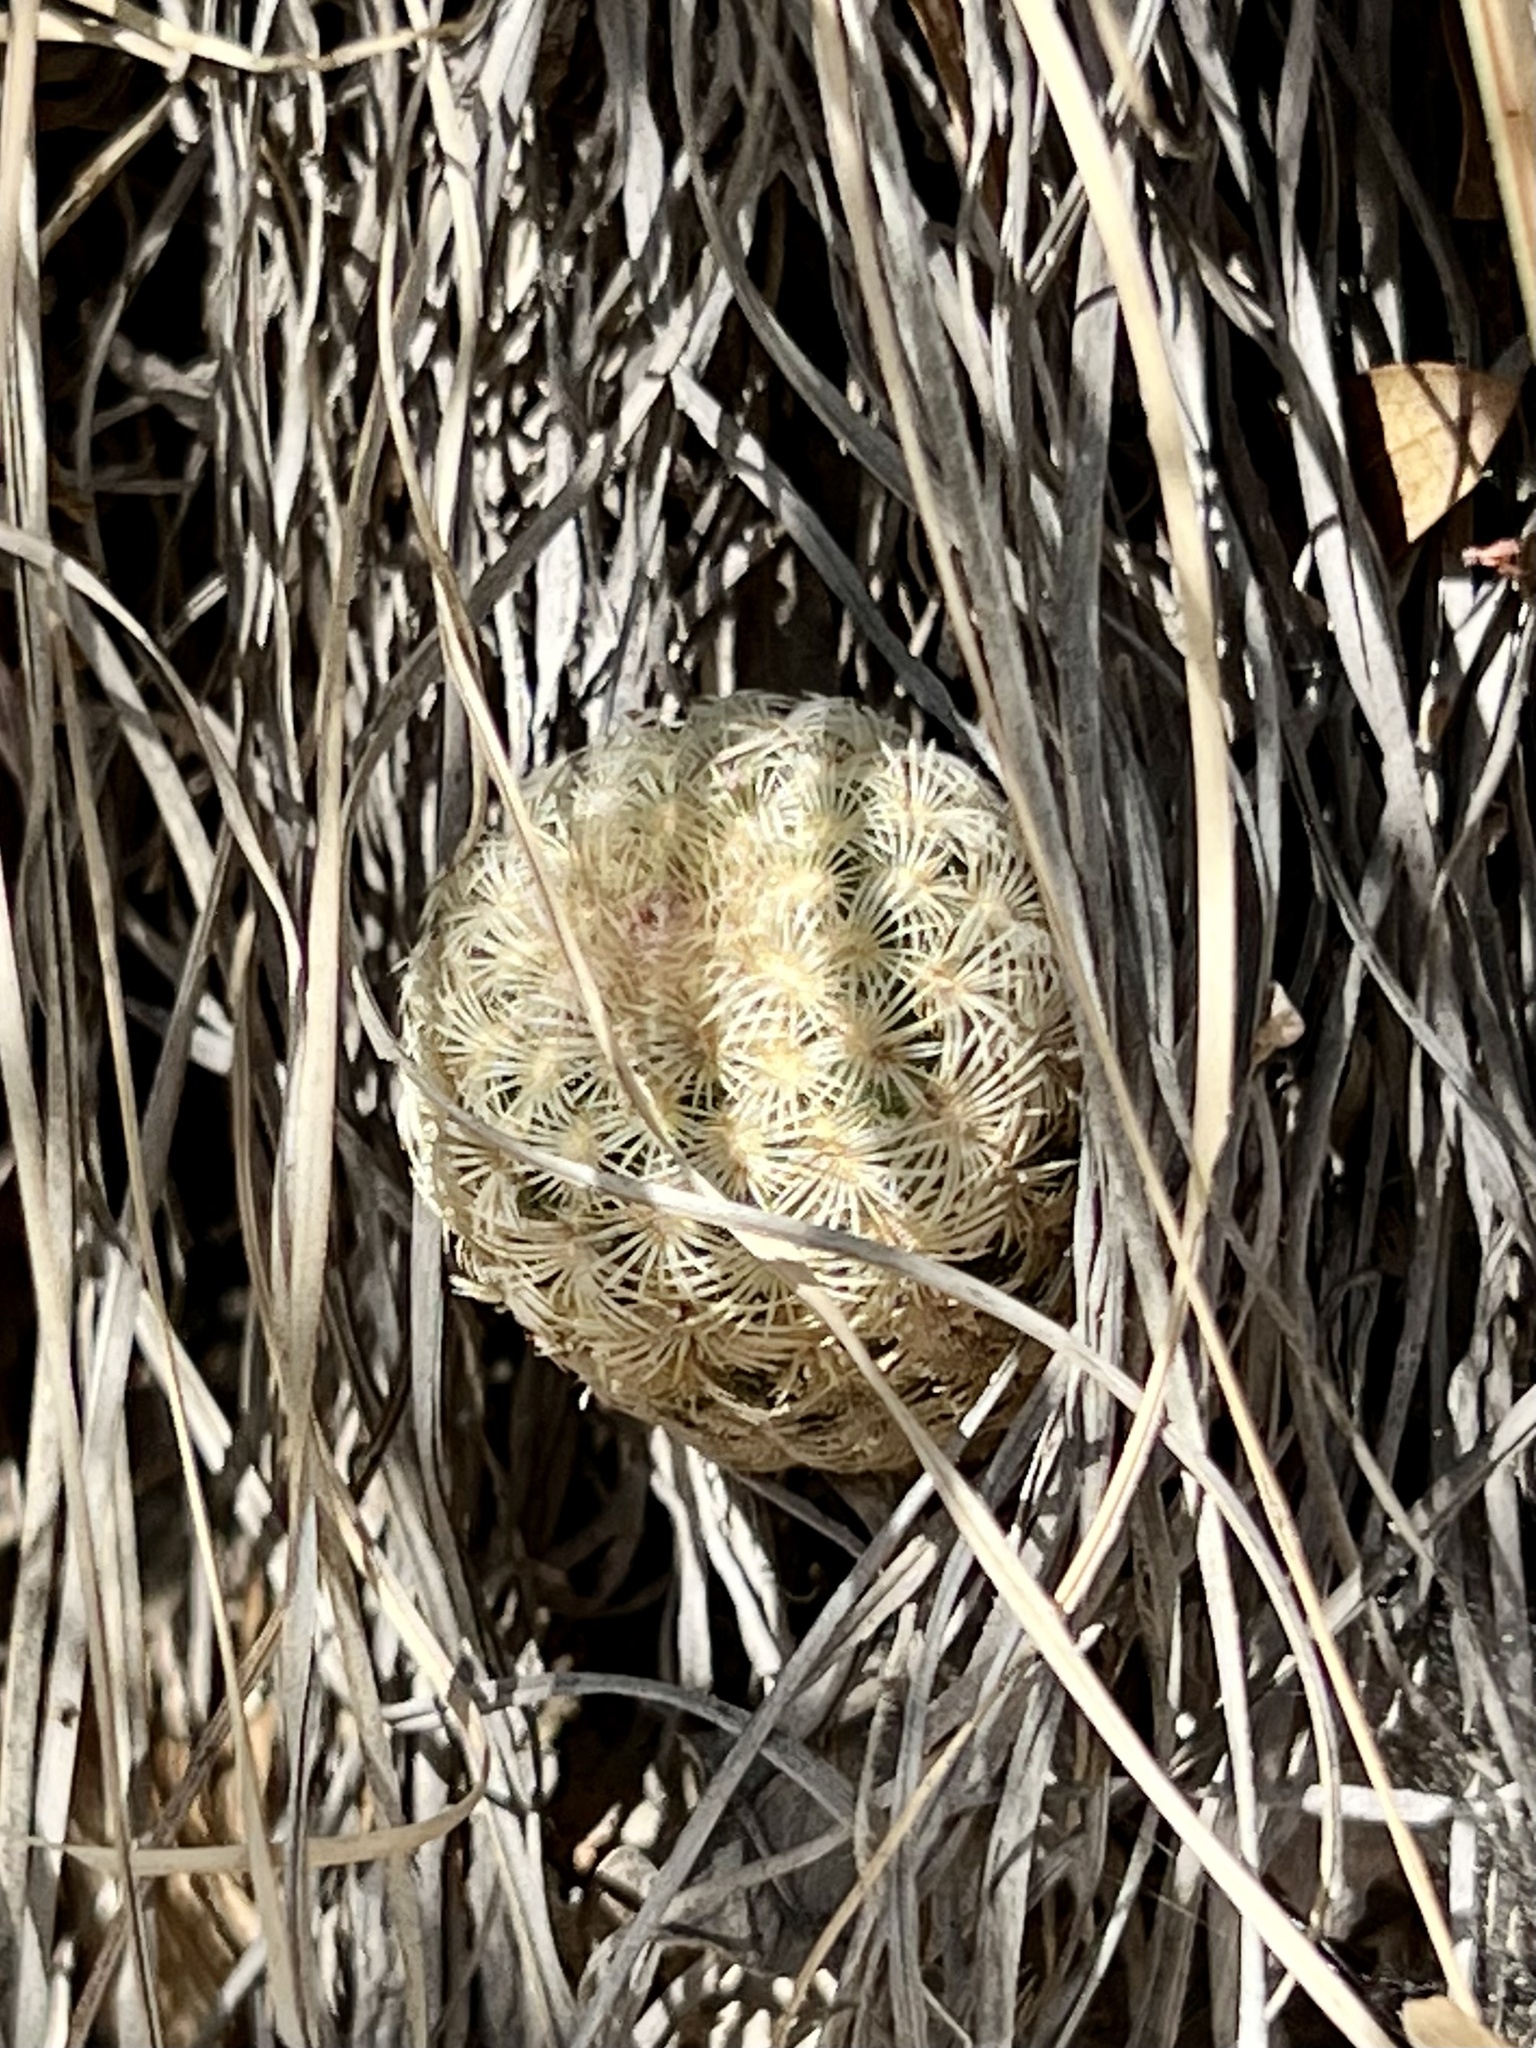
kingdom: Plantae
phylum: Tracheophyta
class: Magnoliopsida
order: Caryophyllales
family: Cactaceae
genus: Echinocereus
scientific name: Echinocereus rigidissimus
